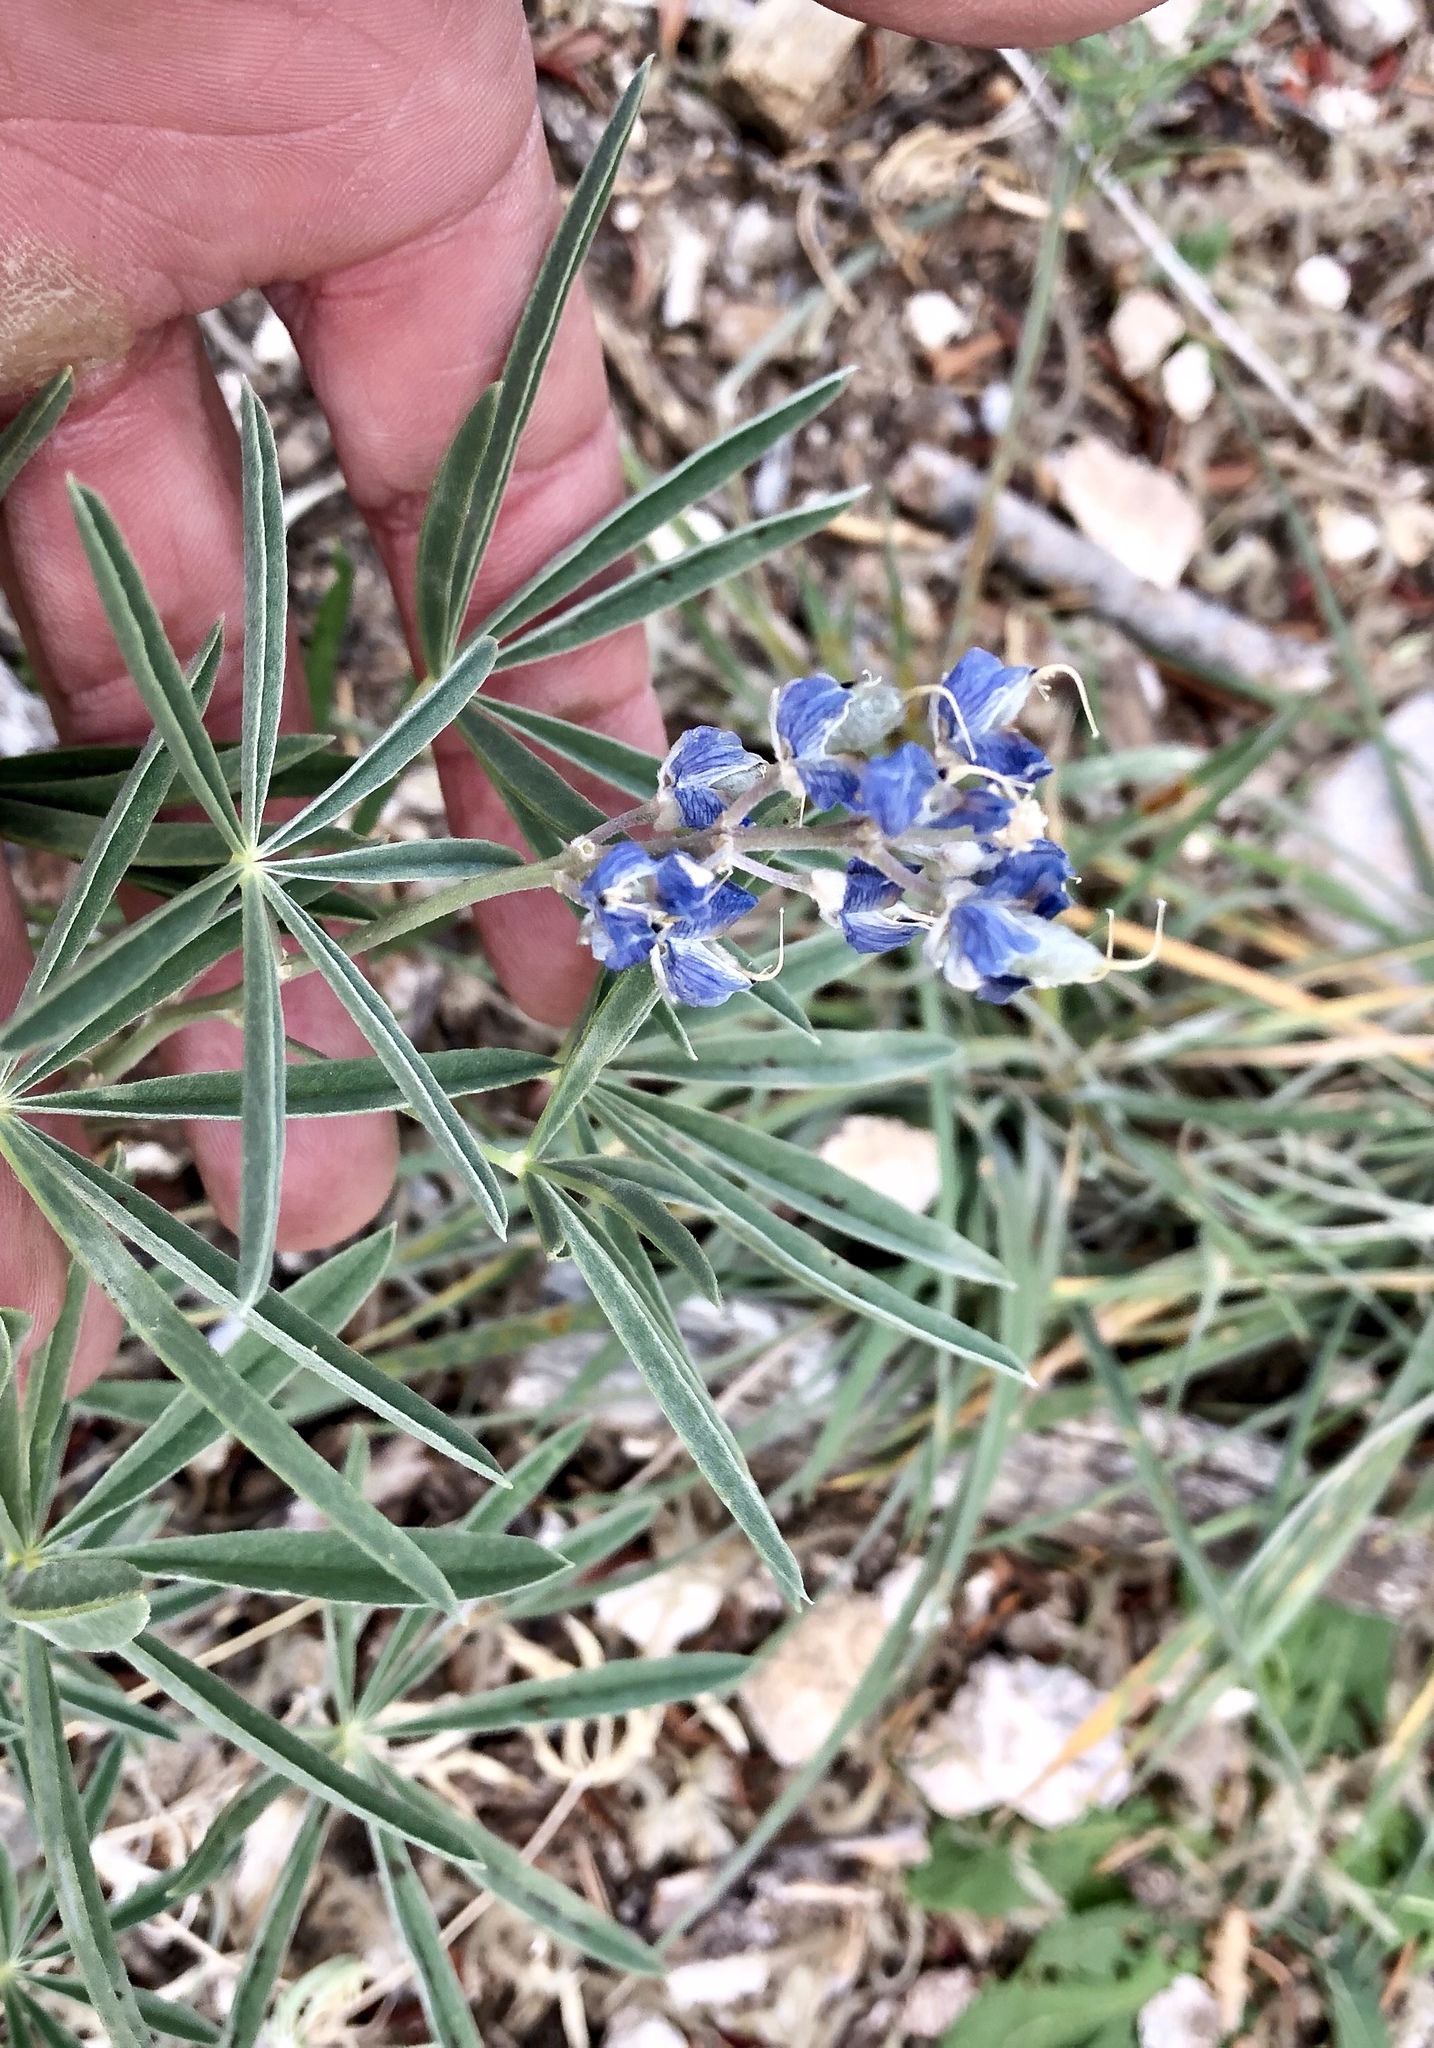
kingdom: Plantae
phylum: Tracheophyta
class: Magnoliopsida
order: Fabales
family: Fabaceae
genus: Lupinus
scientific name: Lupinus argenteus
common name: Silvery lupine
